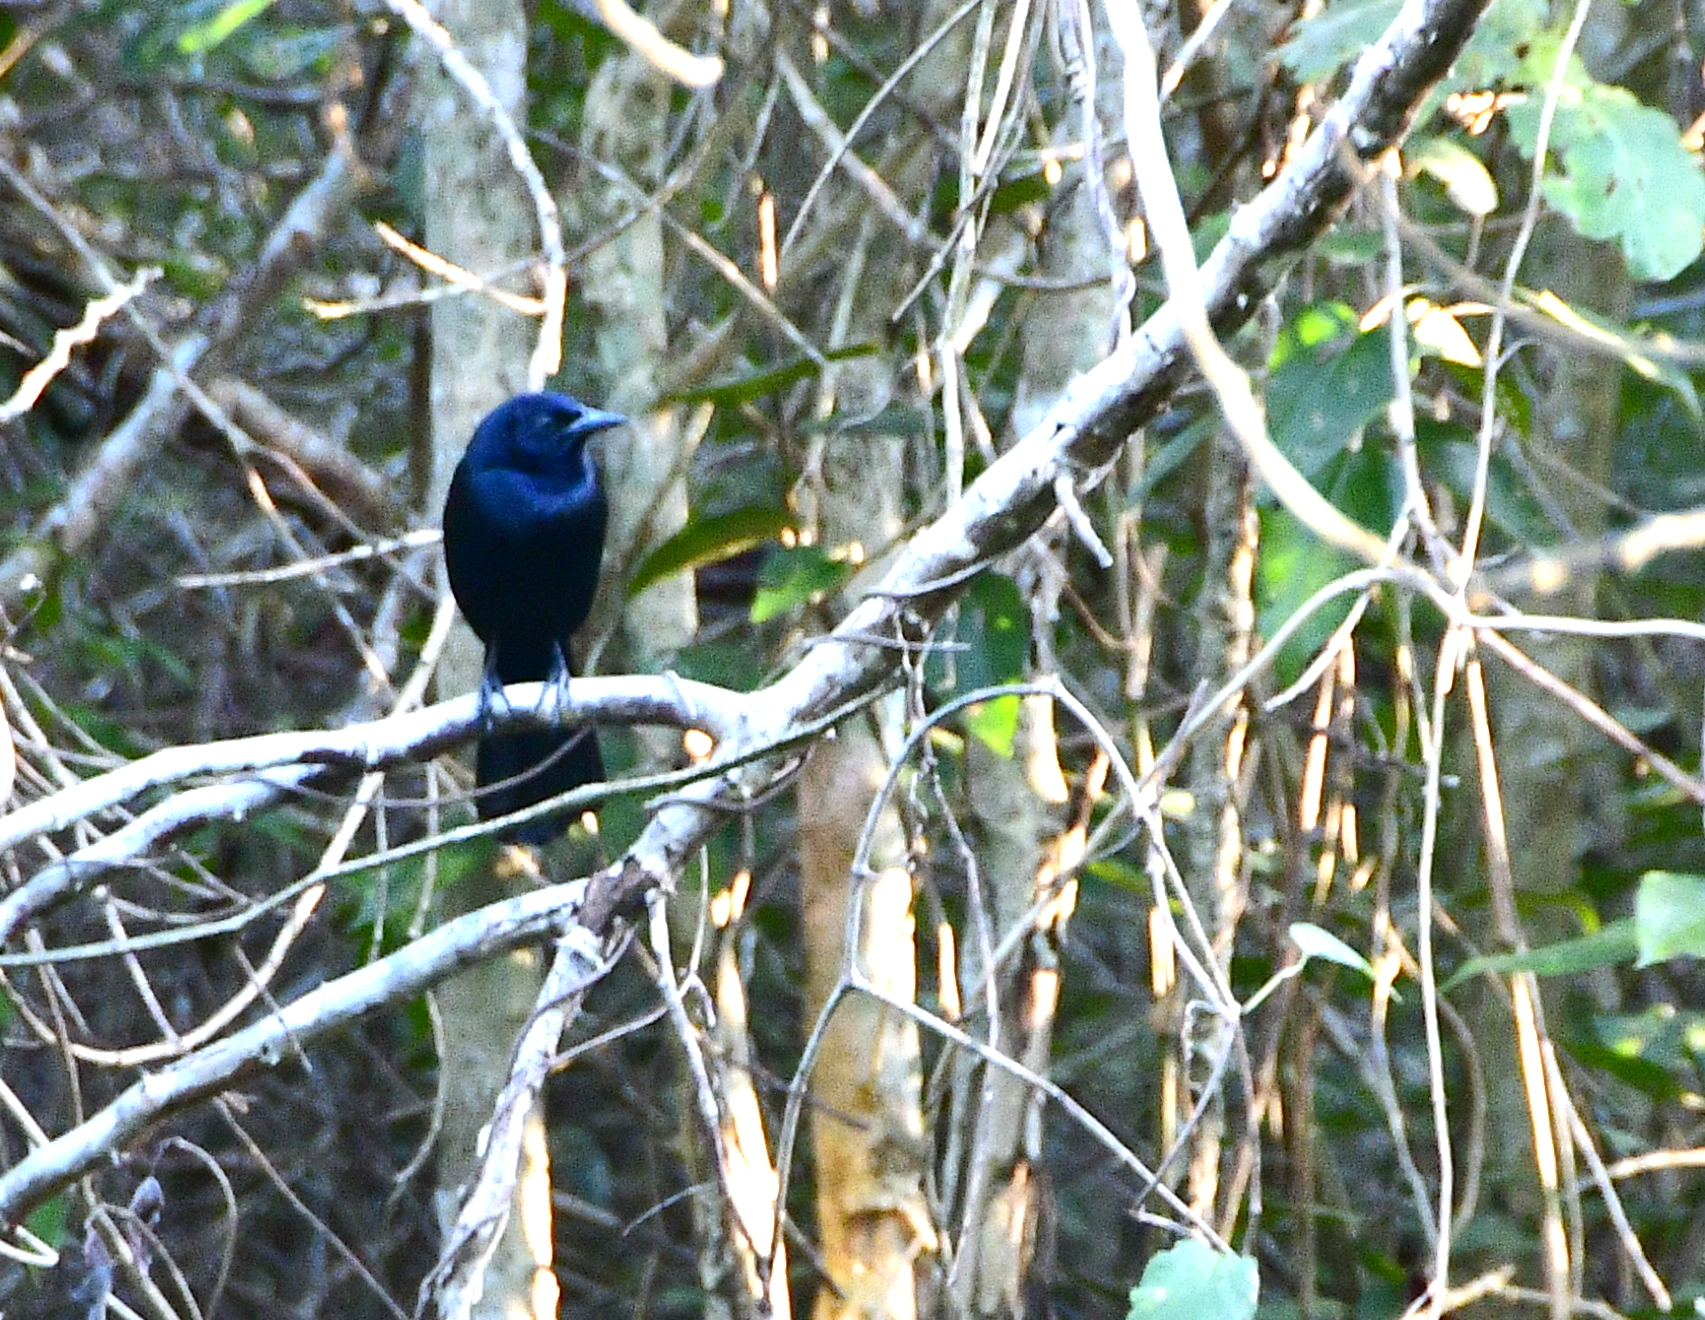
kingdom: Animalia
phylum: Chordata
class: Aves
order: Passeriformes
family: Icteridae
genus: Dives
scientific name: Dives dives
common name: Melodious blackbird
